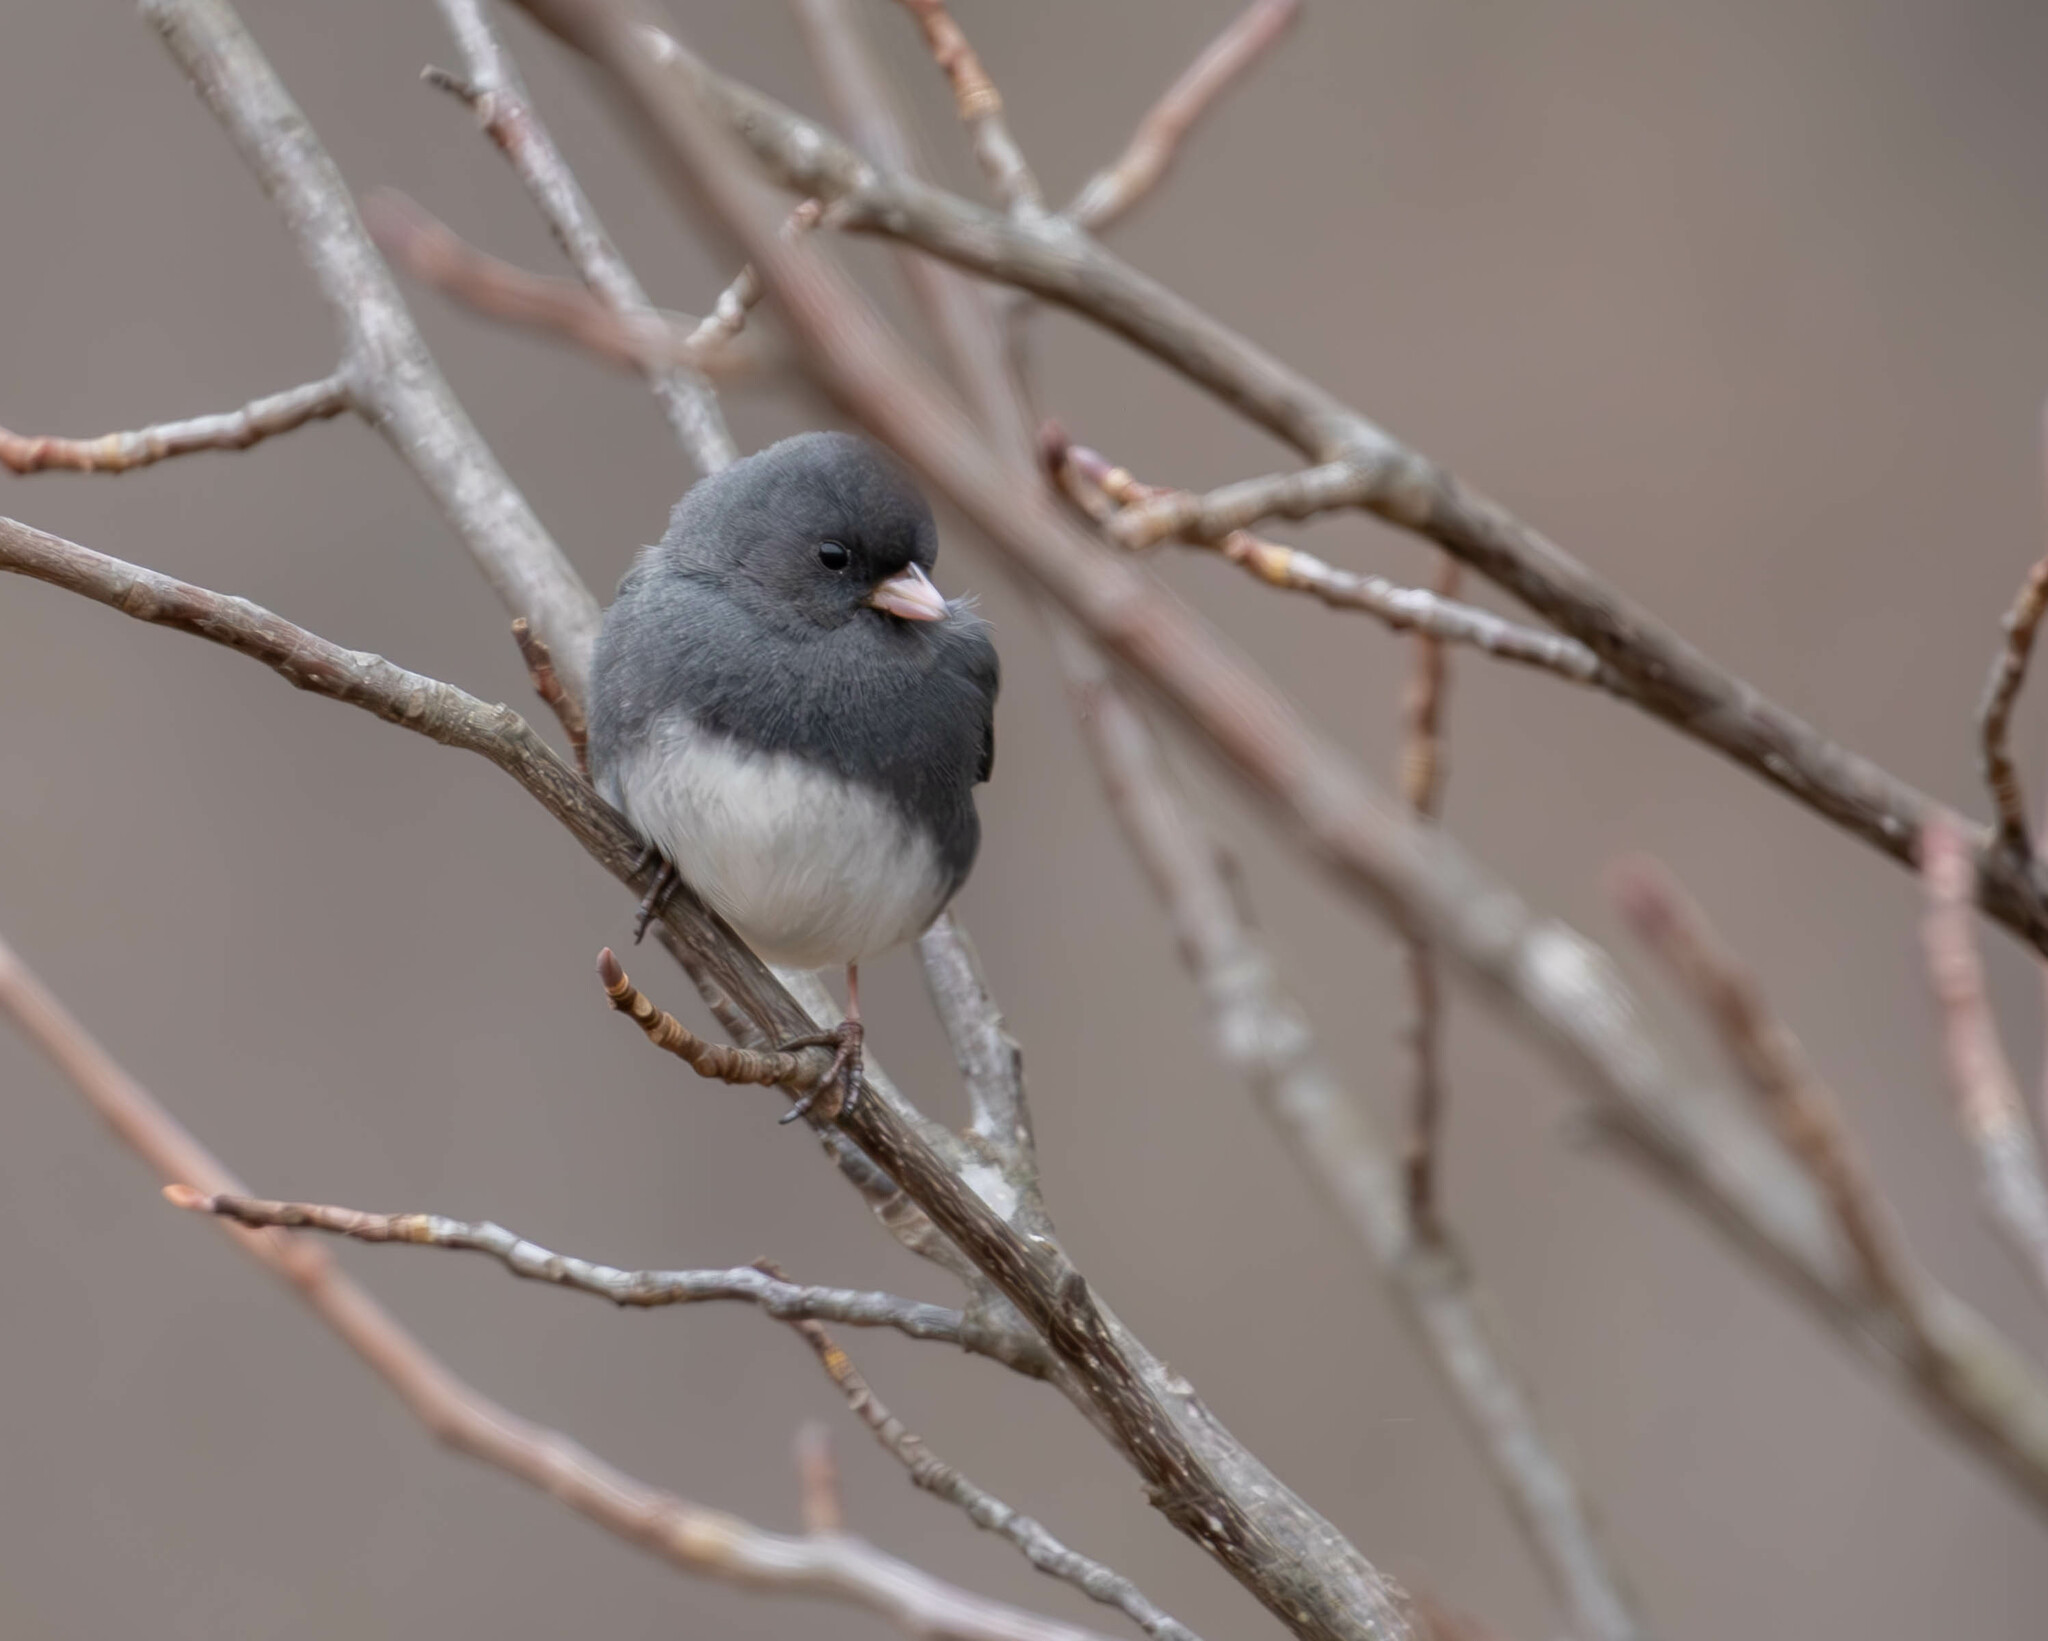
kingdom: Animalia
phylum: Chordata
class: Aves
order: Passeriformes
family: Passerellidae
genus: Junco
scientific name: Junco hyemalis
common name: Dark-eyed junco
